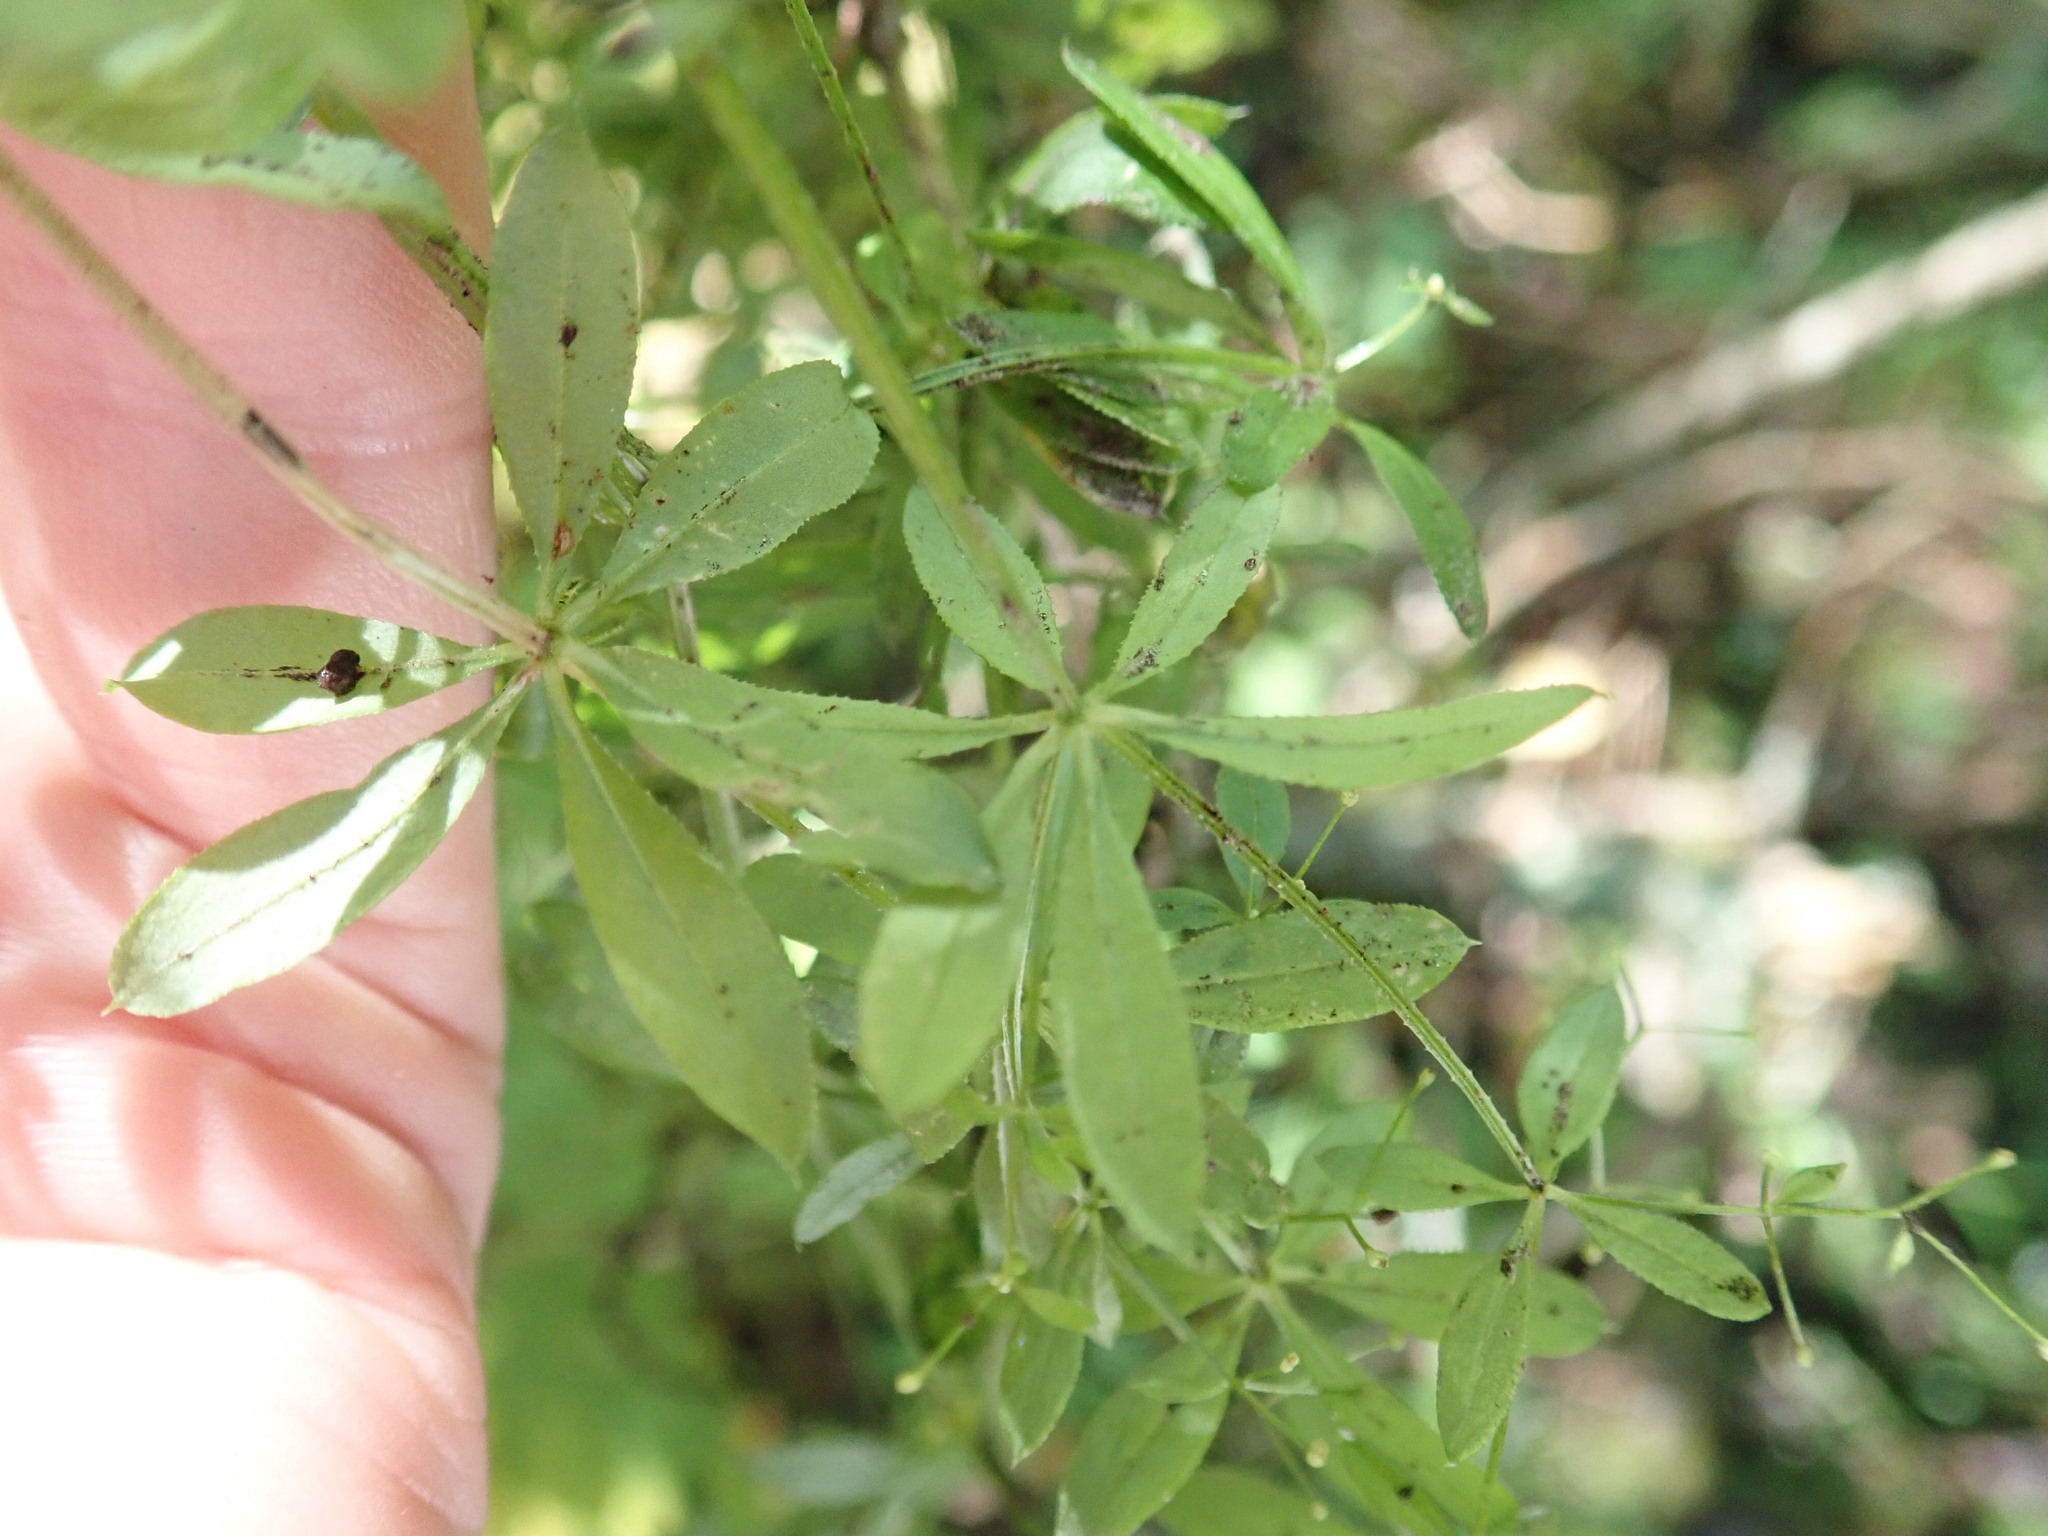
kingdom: Plantae
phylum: Tracheophyta
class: Magnoliopsida
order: Gentianales
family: Rubiaceae
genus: Galium
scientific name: Galium asprellum
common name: Rough bedstraw
